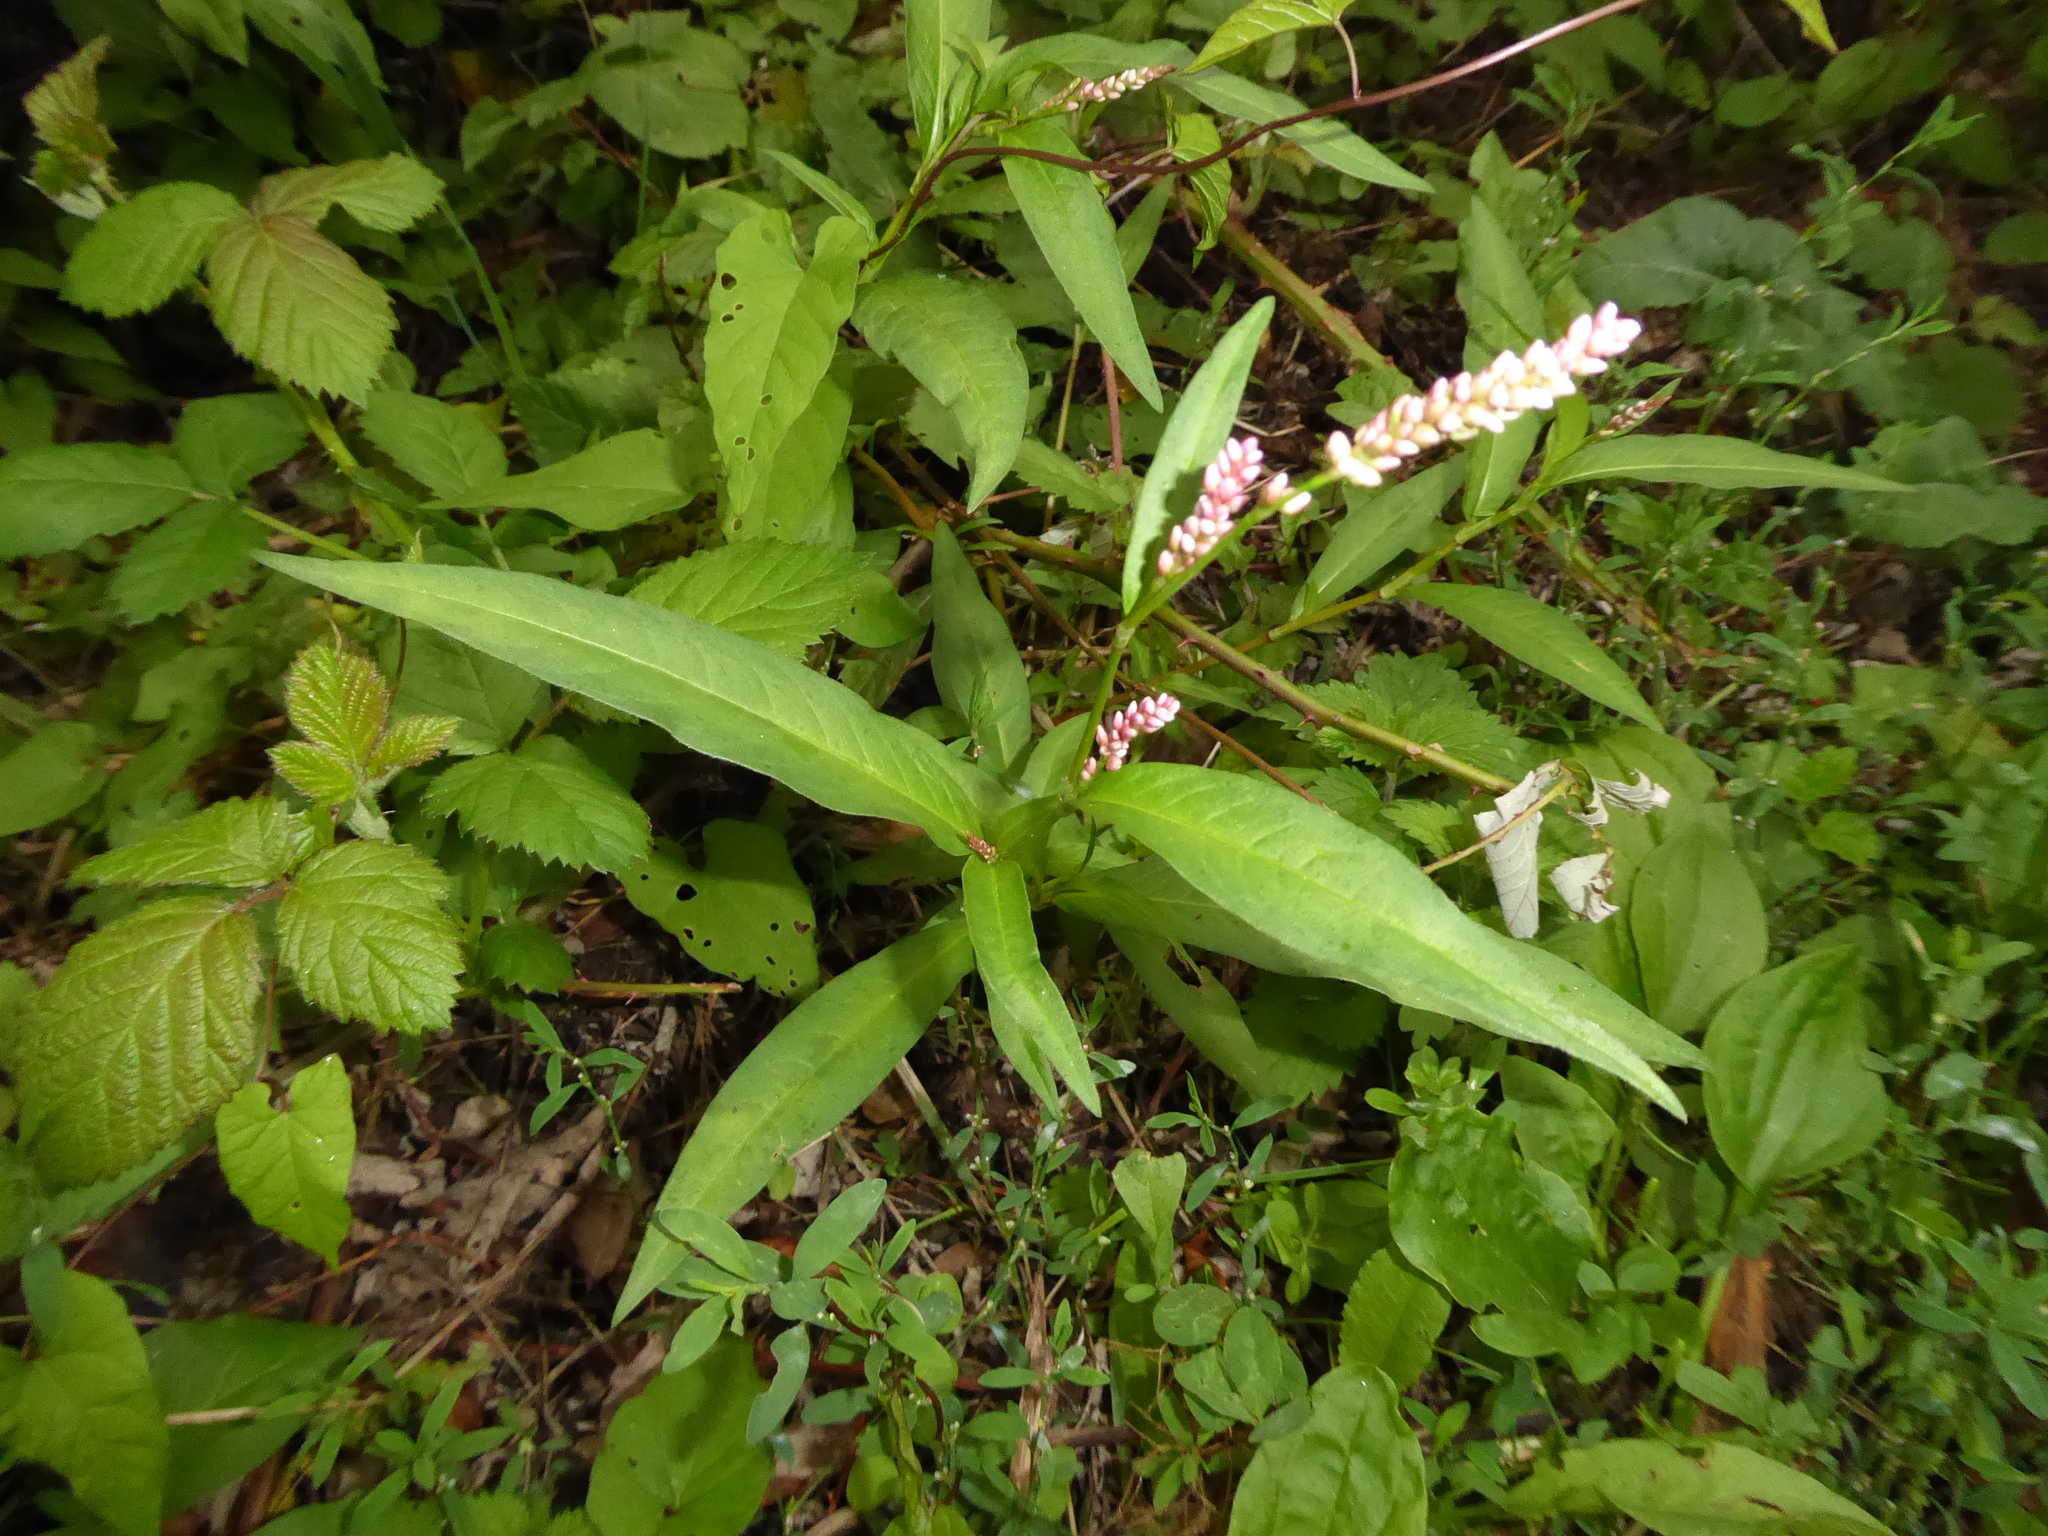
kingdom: Plantae
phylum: Tracheophyta
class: Magnoliopsida
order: Caryophyllales
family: Polygonaceae
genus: Persicaria
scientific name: Persicaria maculosa
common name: Redshank
